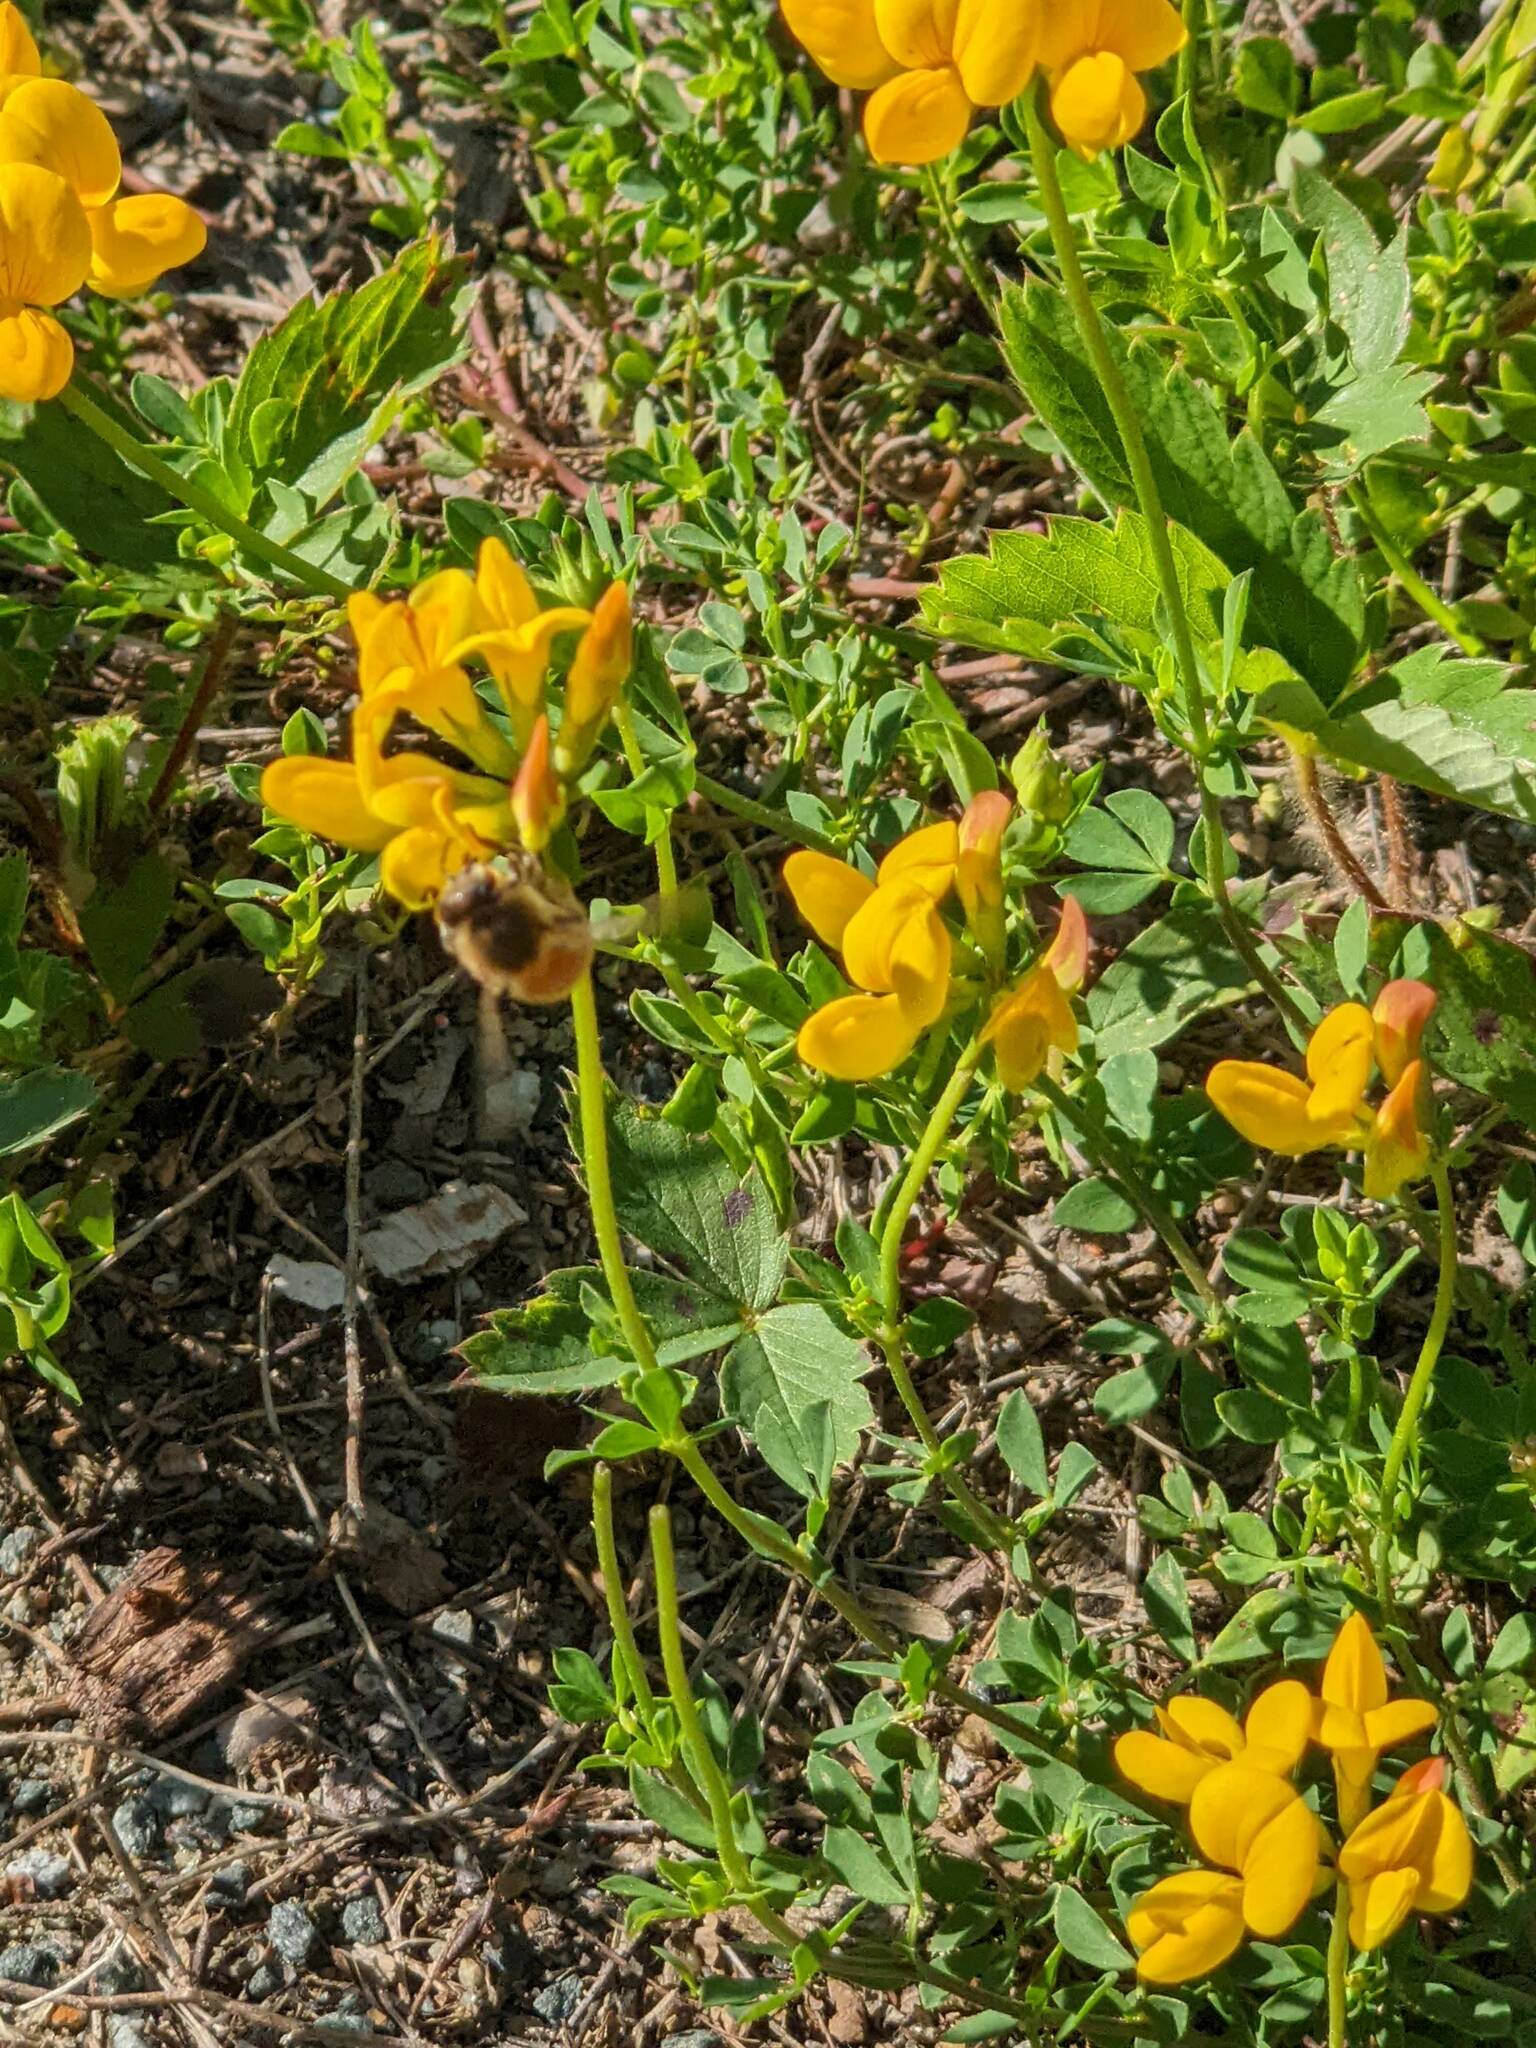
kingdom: Animalia
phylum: Arthropoda
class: Insecta
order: Hymenoptera
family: Apidae
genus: Apis
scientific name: Apis mellifera
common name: Honey bee
